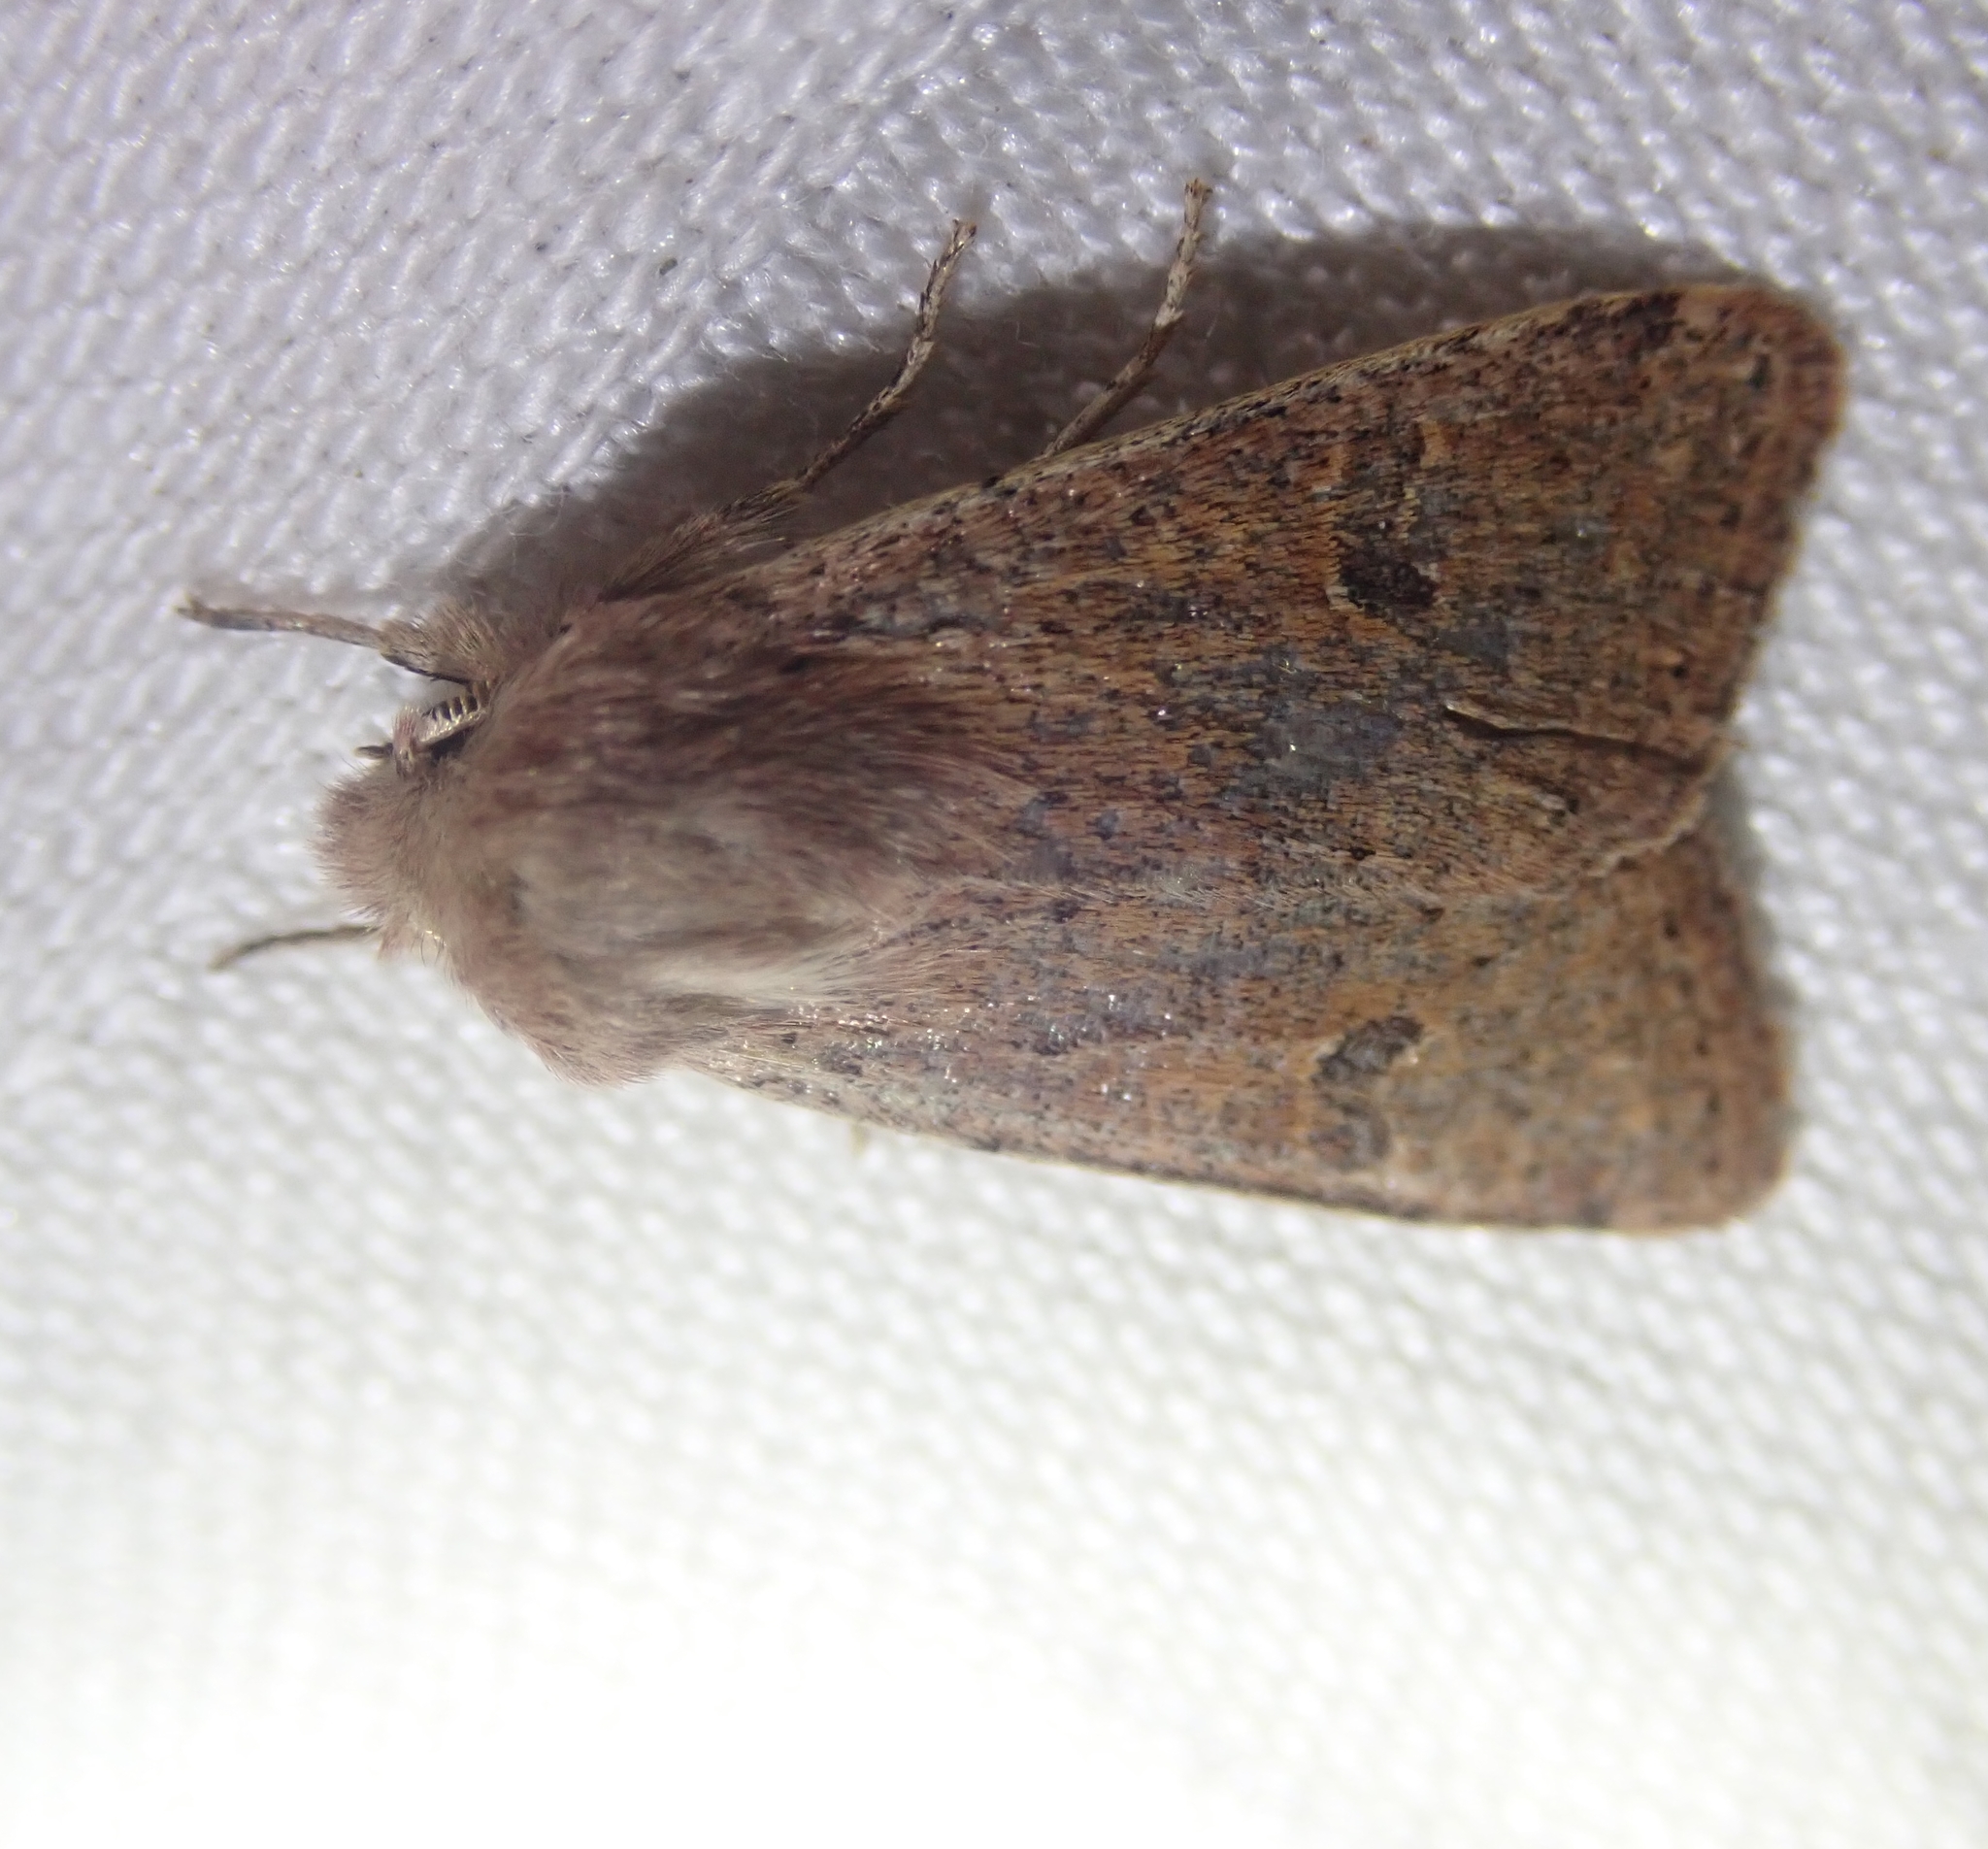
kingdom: Animalia
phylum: Arthropoda
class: Insecta
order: Lepidoptera
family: Noctuidae
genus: Orthosia
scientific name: Orthosia cruda
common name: Small quaker
